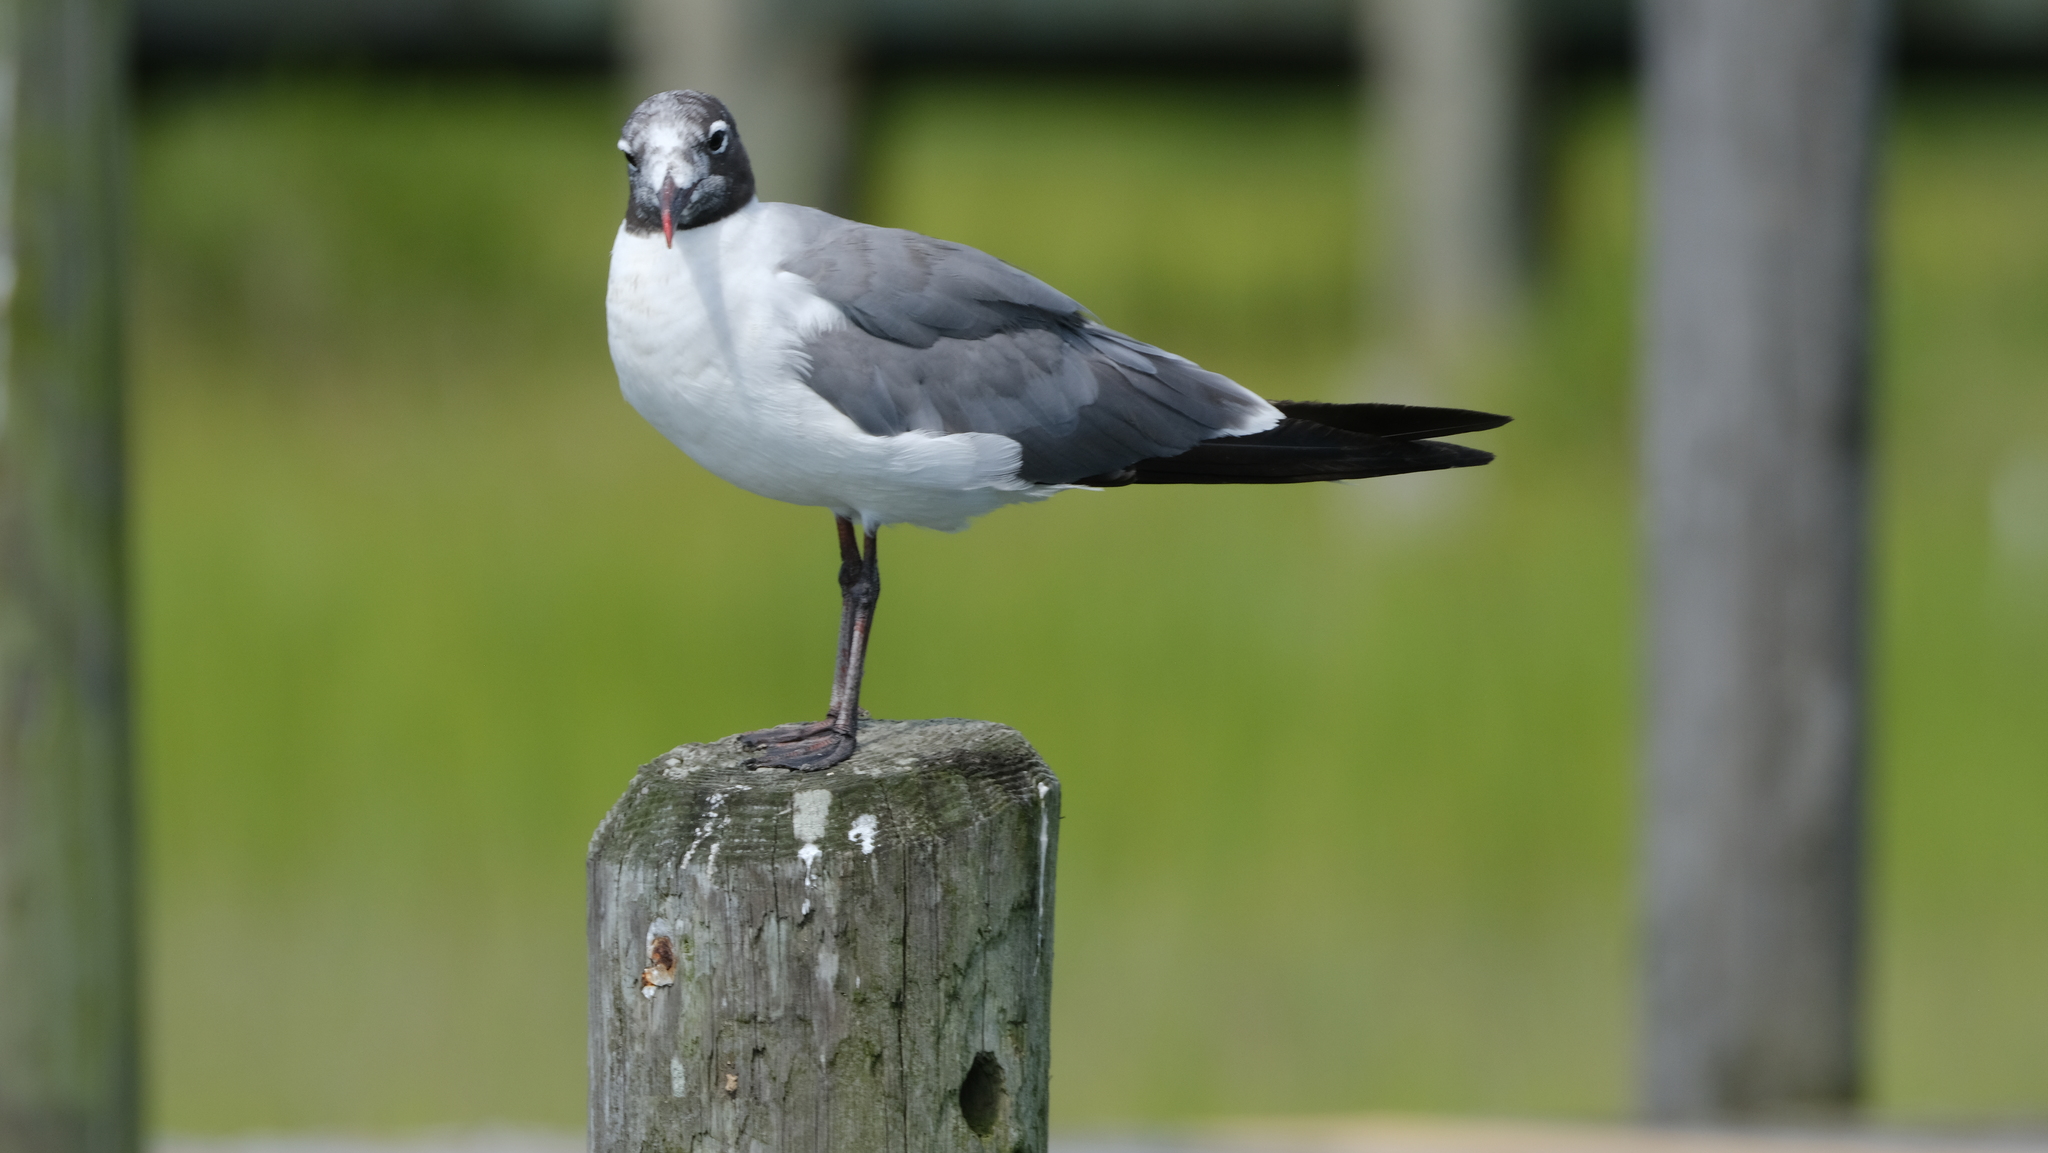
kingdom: Animalia
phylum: Chordata
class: Aves
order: Charadriiformes
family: Laridae
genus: Leucophaeus
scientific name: Leucophaeus atricilla
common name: Laughing gull
